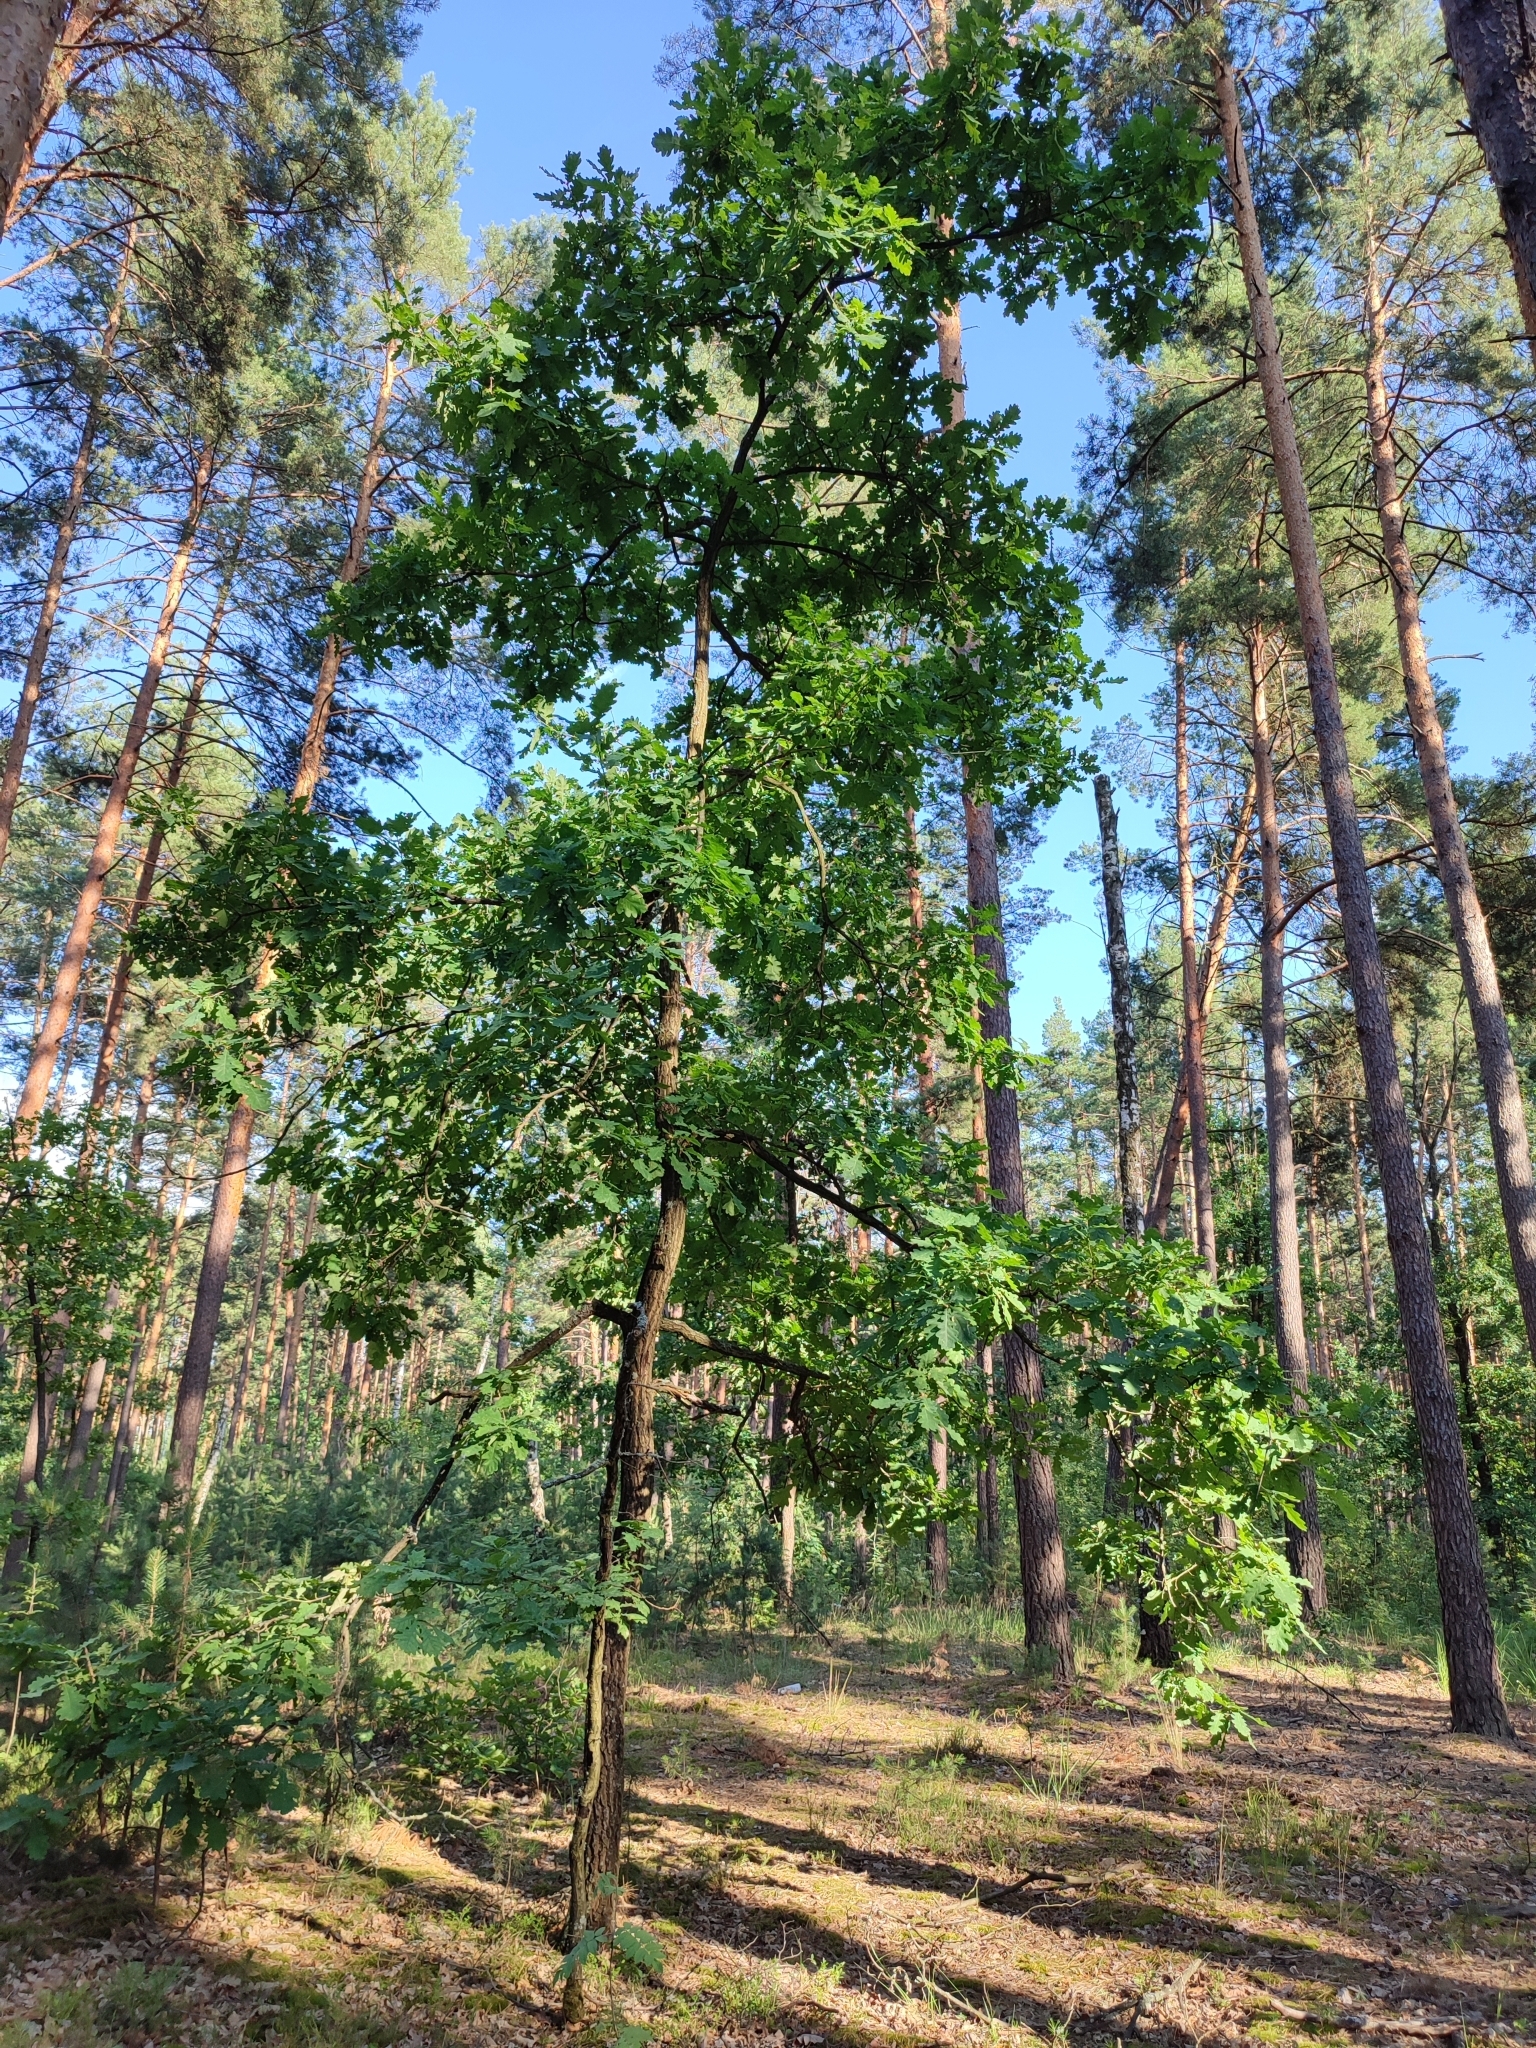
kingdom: Plantae
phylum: Tracheophyta
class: Magnoliopsida
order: Fagales
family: Fagaceae
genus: Quercus
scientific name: Quercus robur
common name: Pedunculate oak
